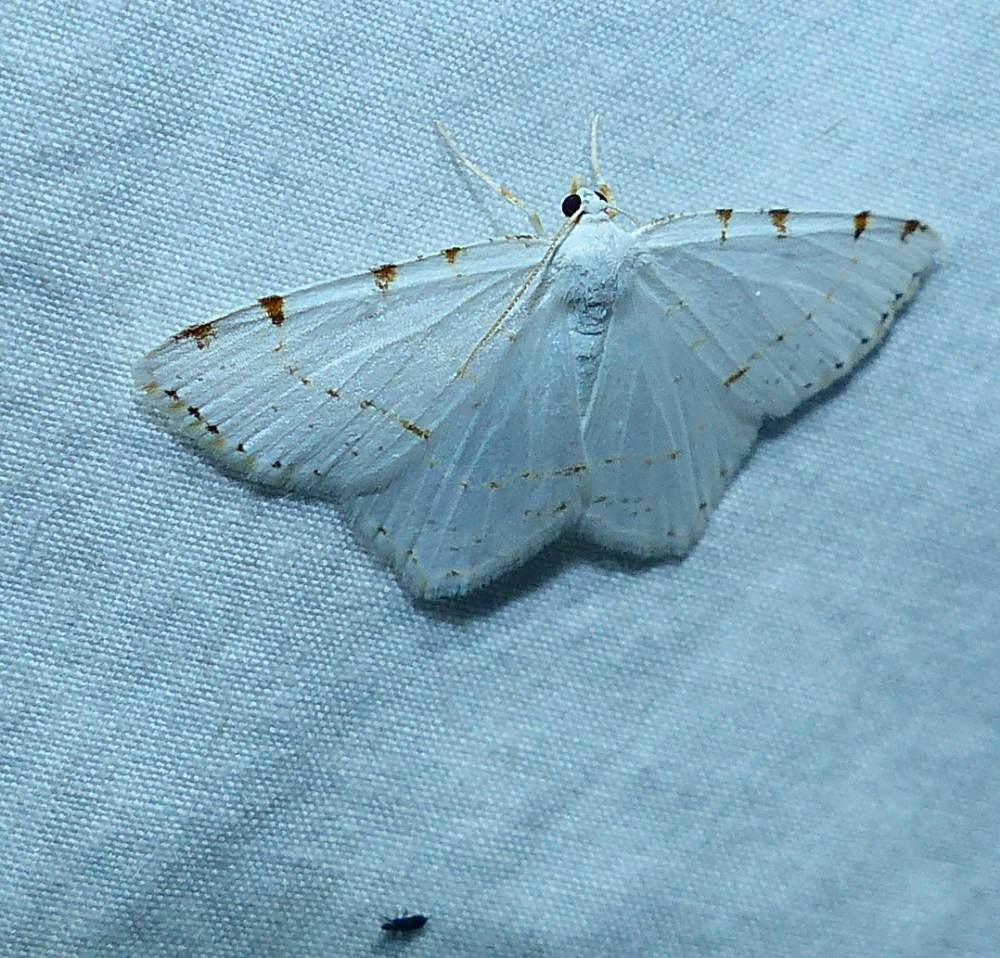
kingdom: Animalia
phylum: Arthropoda
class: Insecta
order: Lepidoptera
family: Geometridae
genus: Macaria
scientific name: Macaria pustularia
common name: Lesser maple spanworm moth
